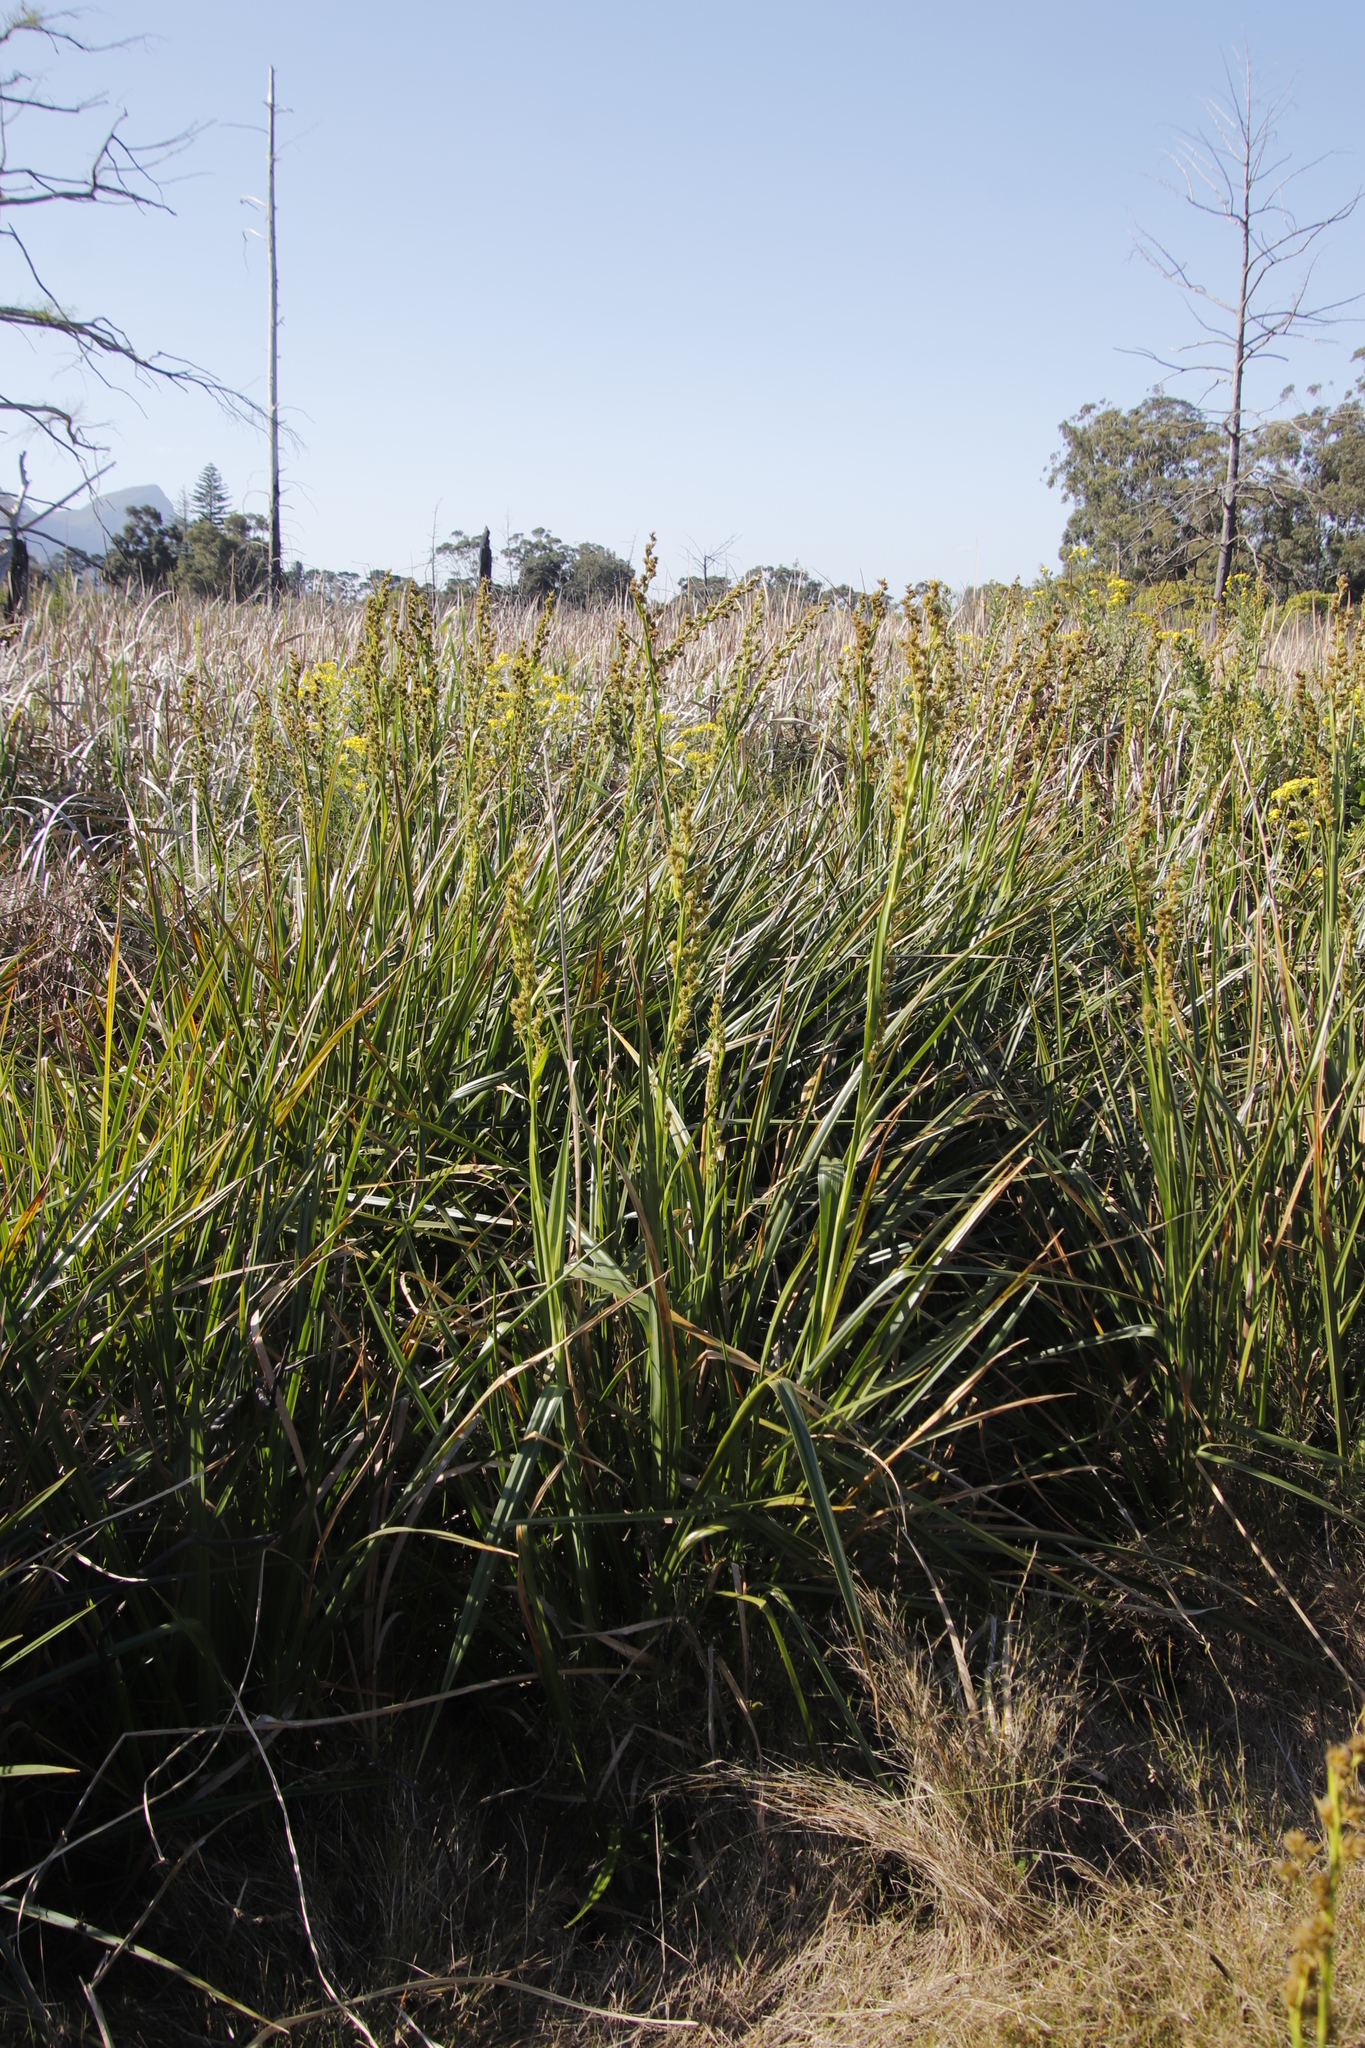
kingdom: Plantae
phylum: Tracheophyta
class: Liliopsida
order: Poales
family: Cyperaceae
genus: Carpha
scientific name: Carpha glomerata
